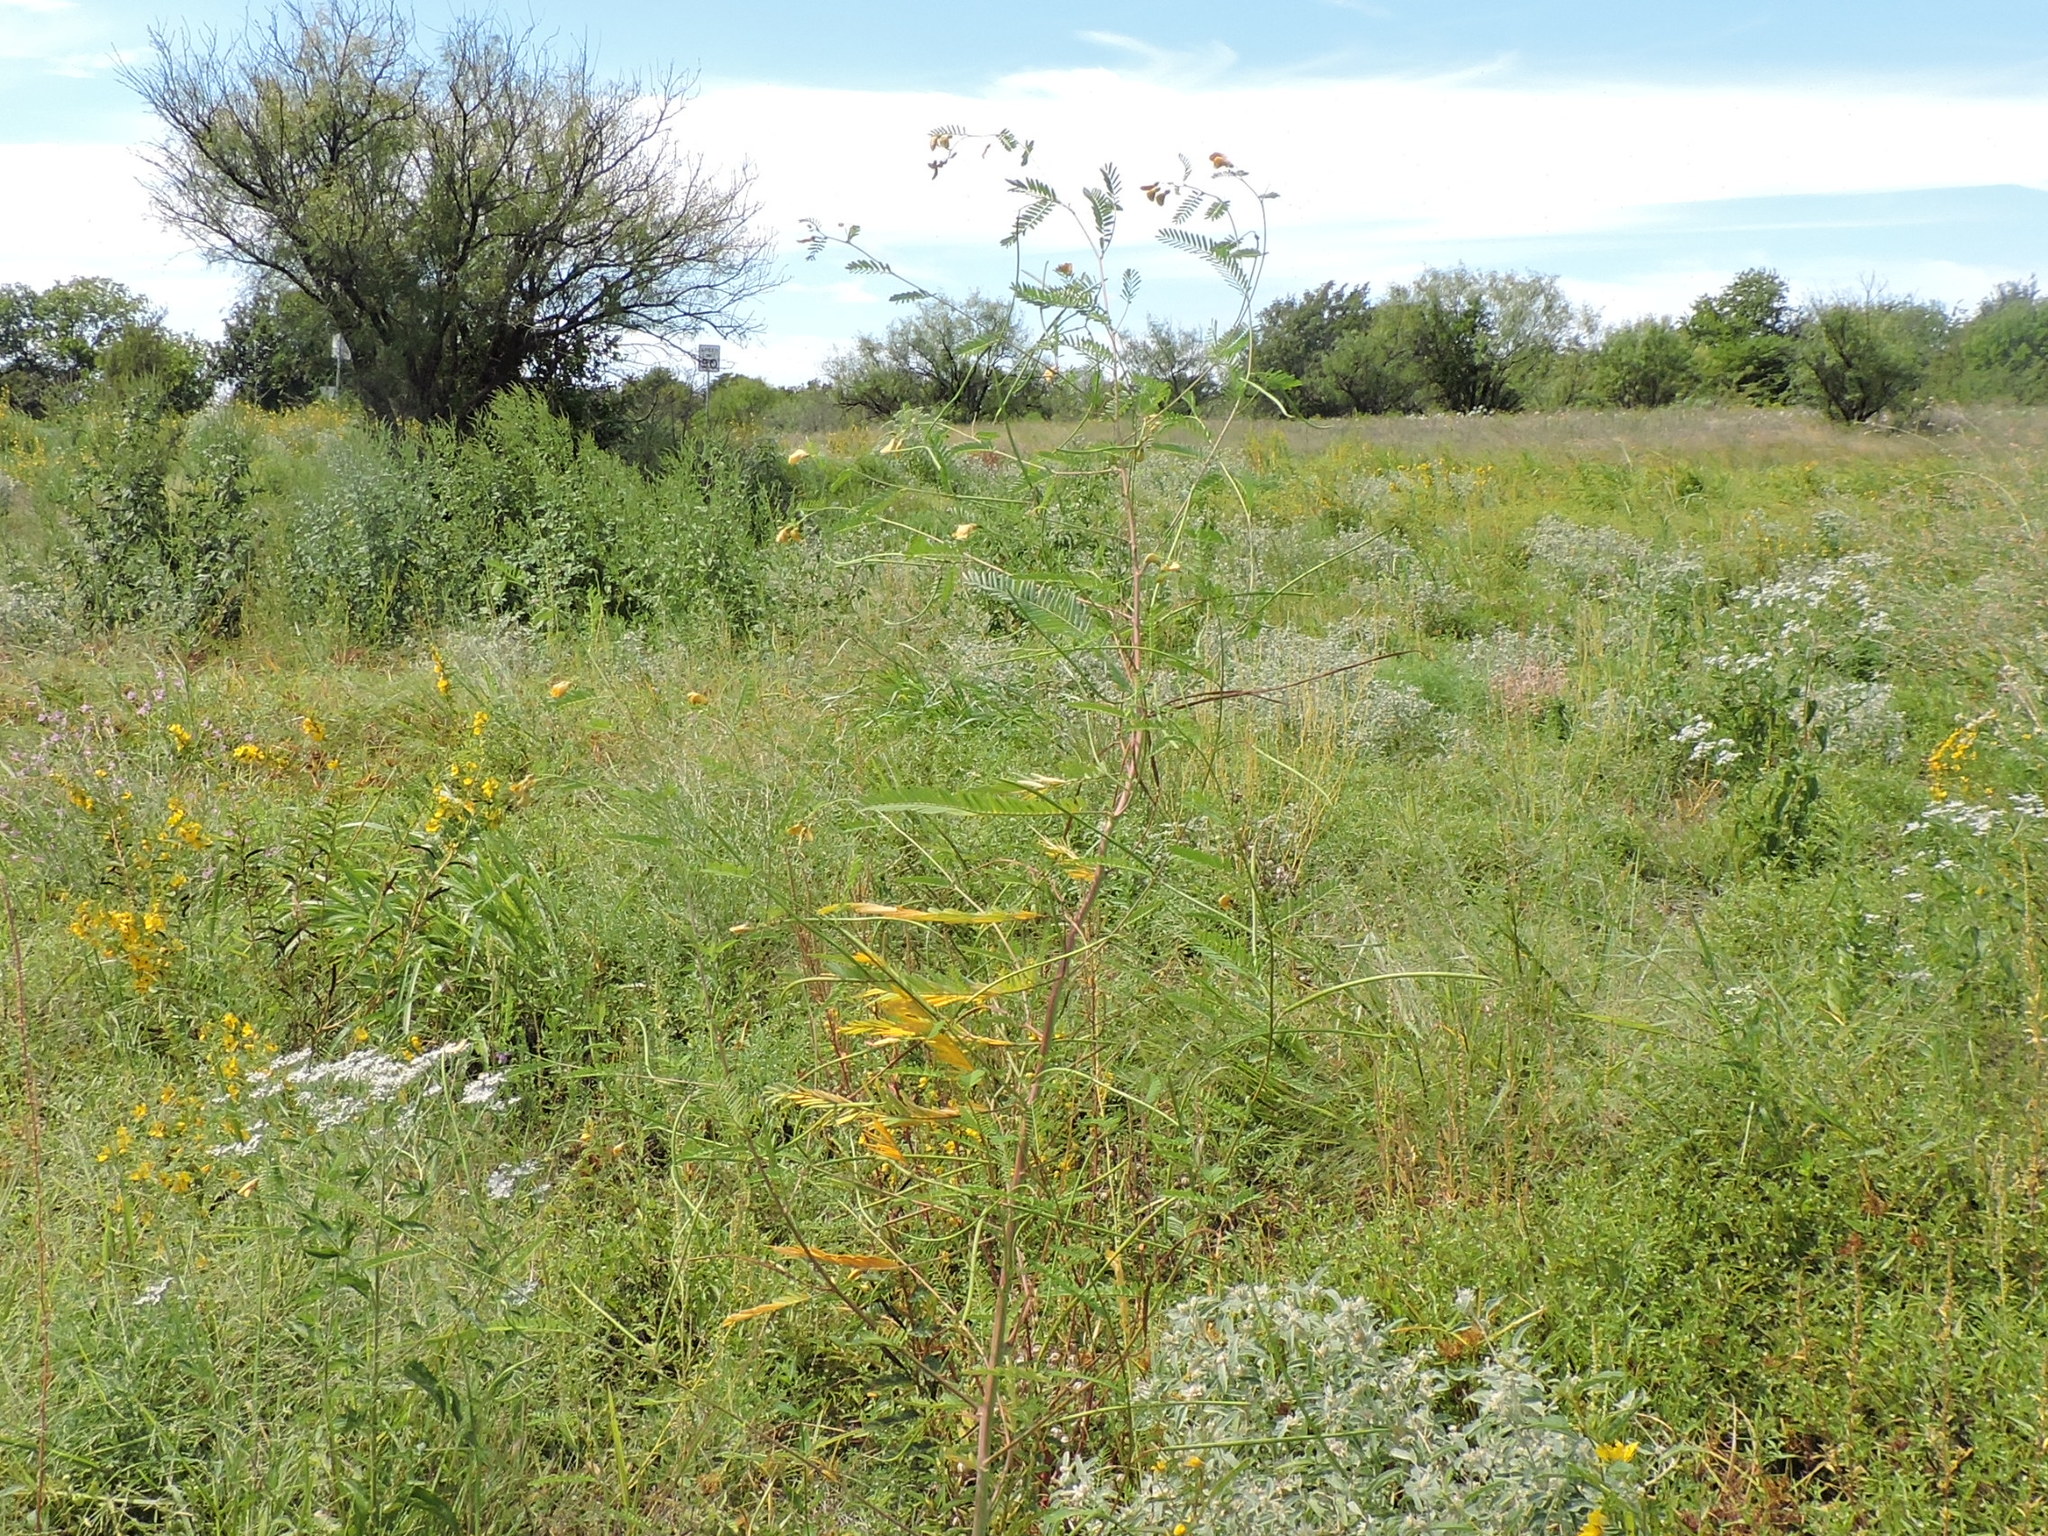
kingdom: Plantae
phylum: Tracheophyta
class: Magnoliopsida
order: Fabales
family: Fabaceae
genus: Sesbania
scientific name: Sesbania herbacea
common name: Bigpod sesbania
